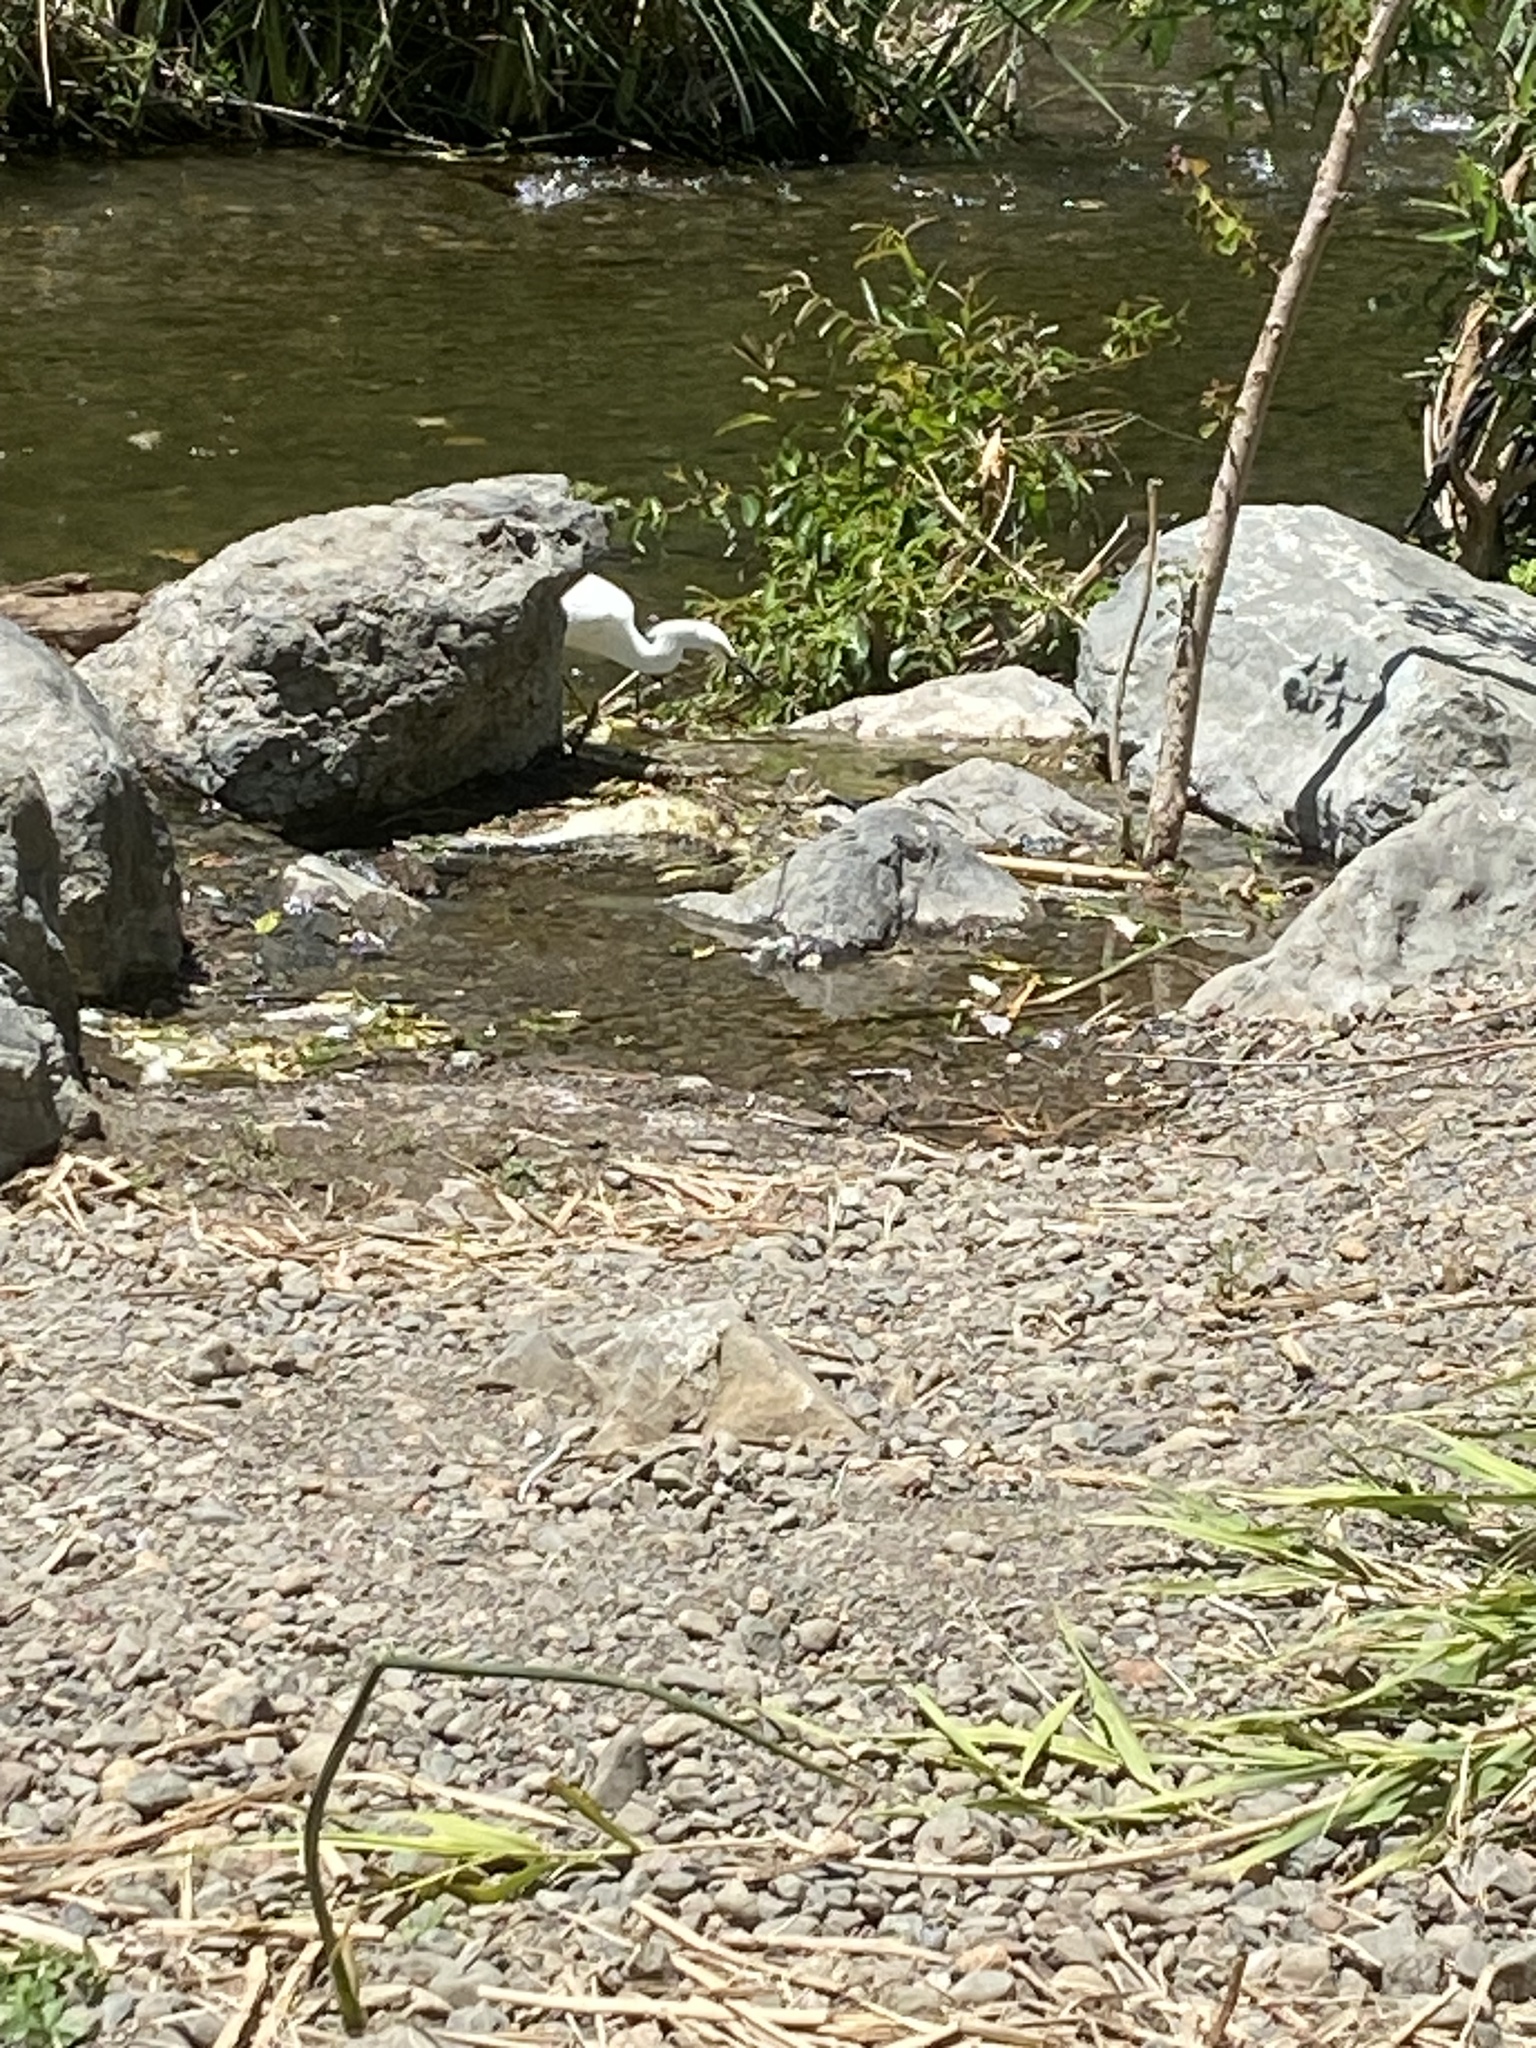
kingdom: Animalia
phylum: Chordata
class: Aves
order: Pelecaniformes
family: Ardeidae
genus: Egretta
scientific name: Egretta thula
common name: Snowy egret
